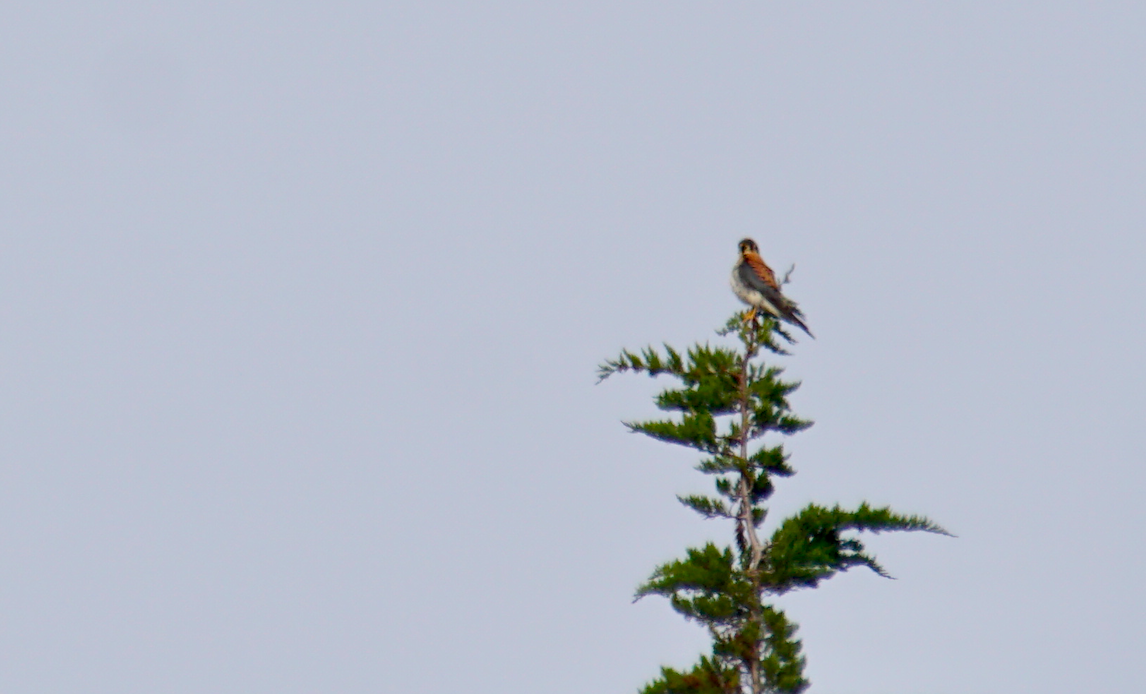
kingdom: Animalia
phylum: Chordata
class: Aves
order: Falconiformes
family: Falconidae
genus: Falco
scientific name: Falco sparverius
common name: American kestrel
